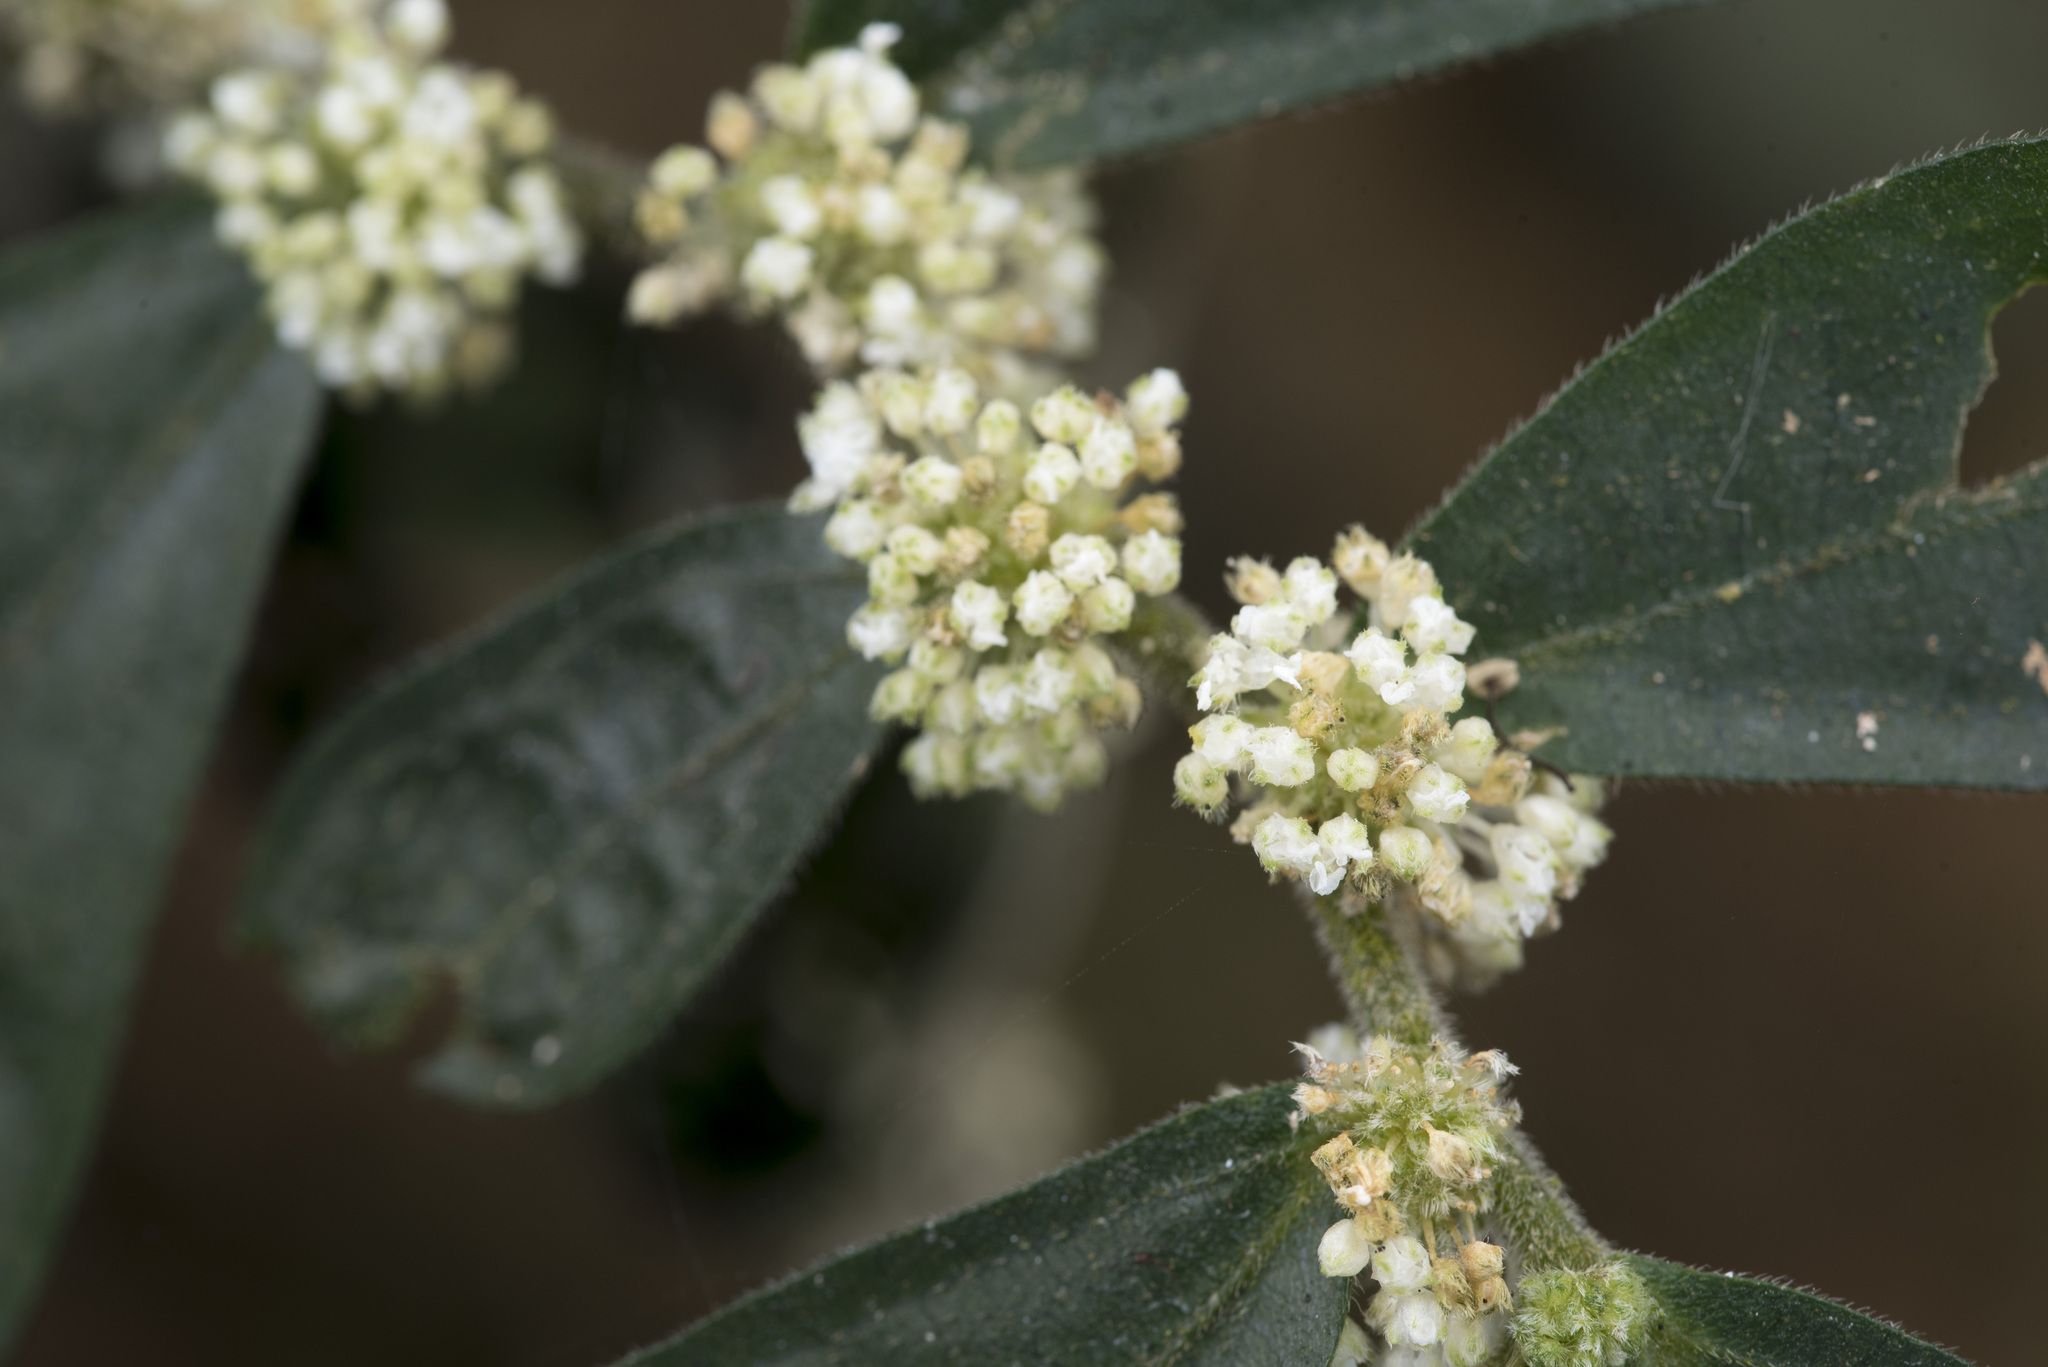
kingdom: Plantae
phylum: Tracheophyta
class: Magnoliopsida
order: Rosales
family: Urticaceae
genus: Elatostema
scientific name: Elatostema lineolatum
